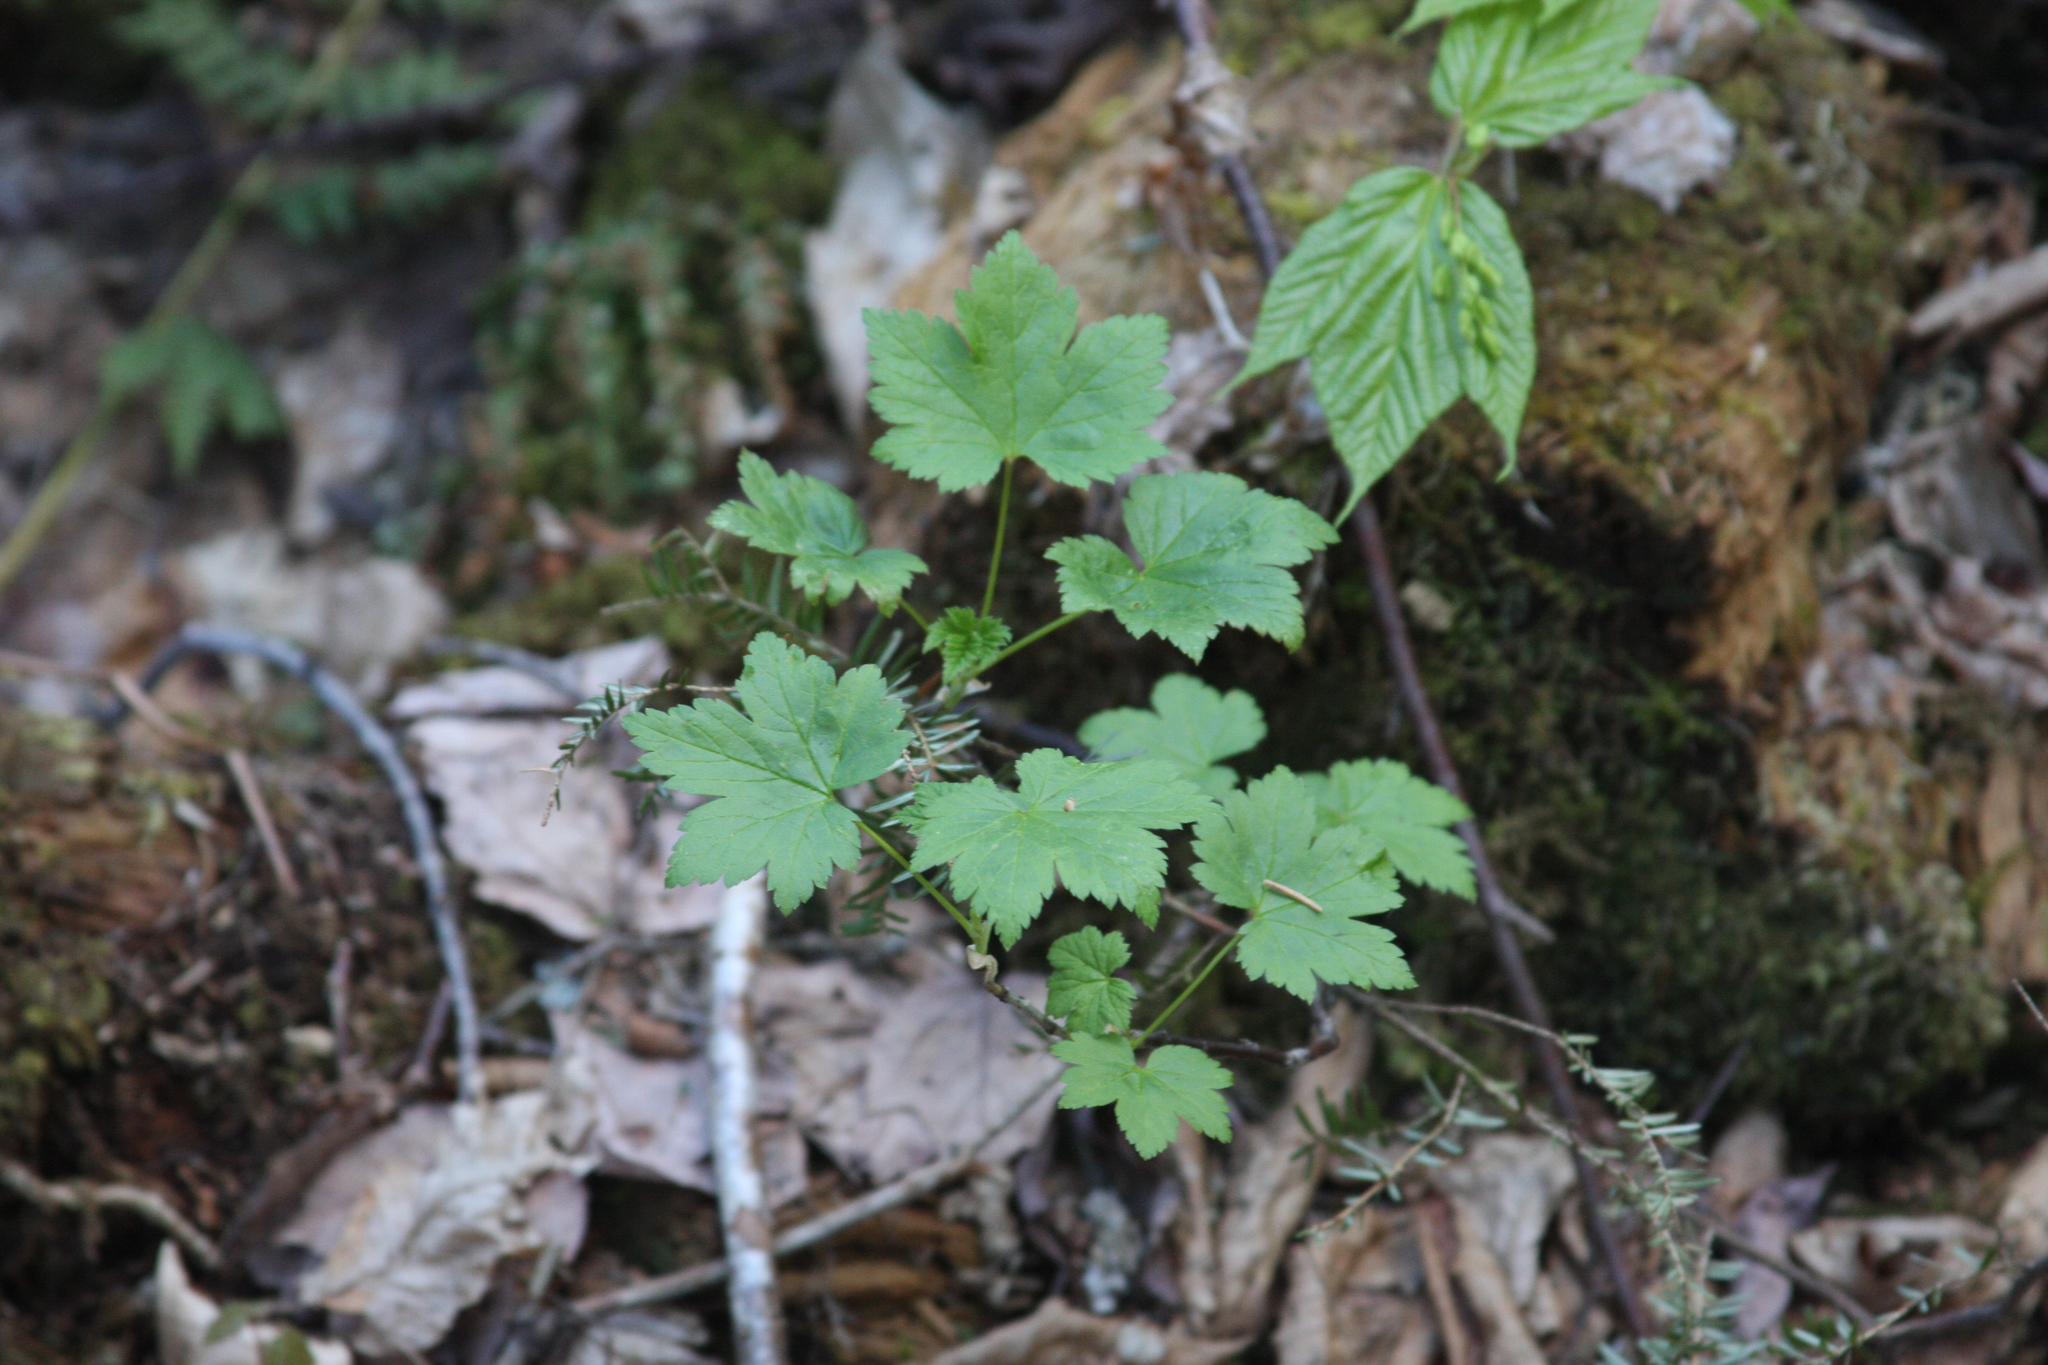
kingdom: Plantae
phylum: Tracheophyta
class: Magnoliopsida
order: Sapindales
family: Sapindaceae
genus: Acer
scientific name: Acer pensylvanicum
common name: Moosewood
